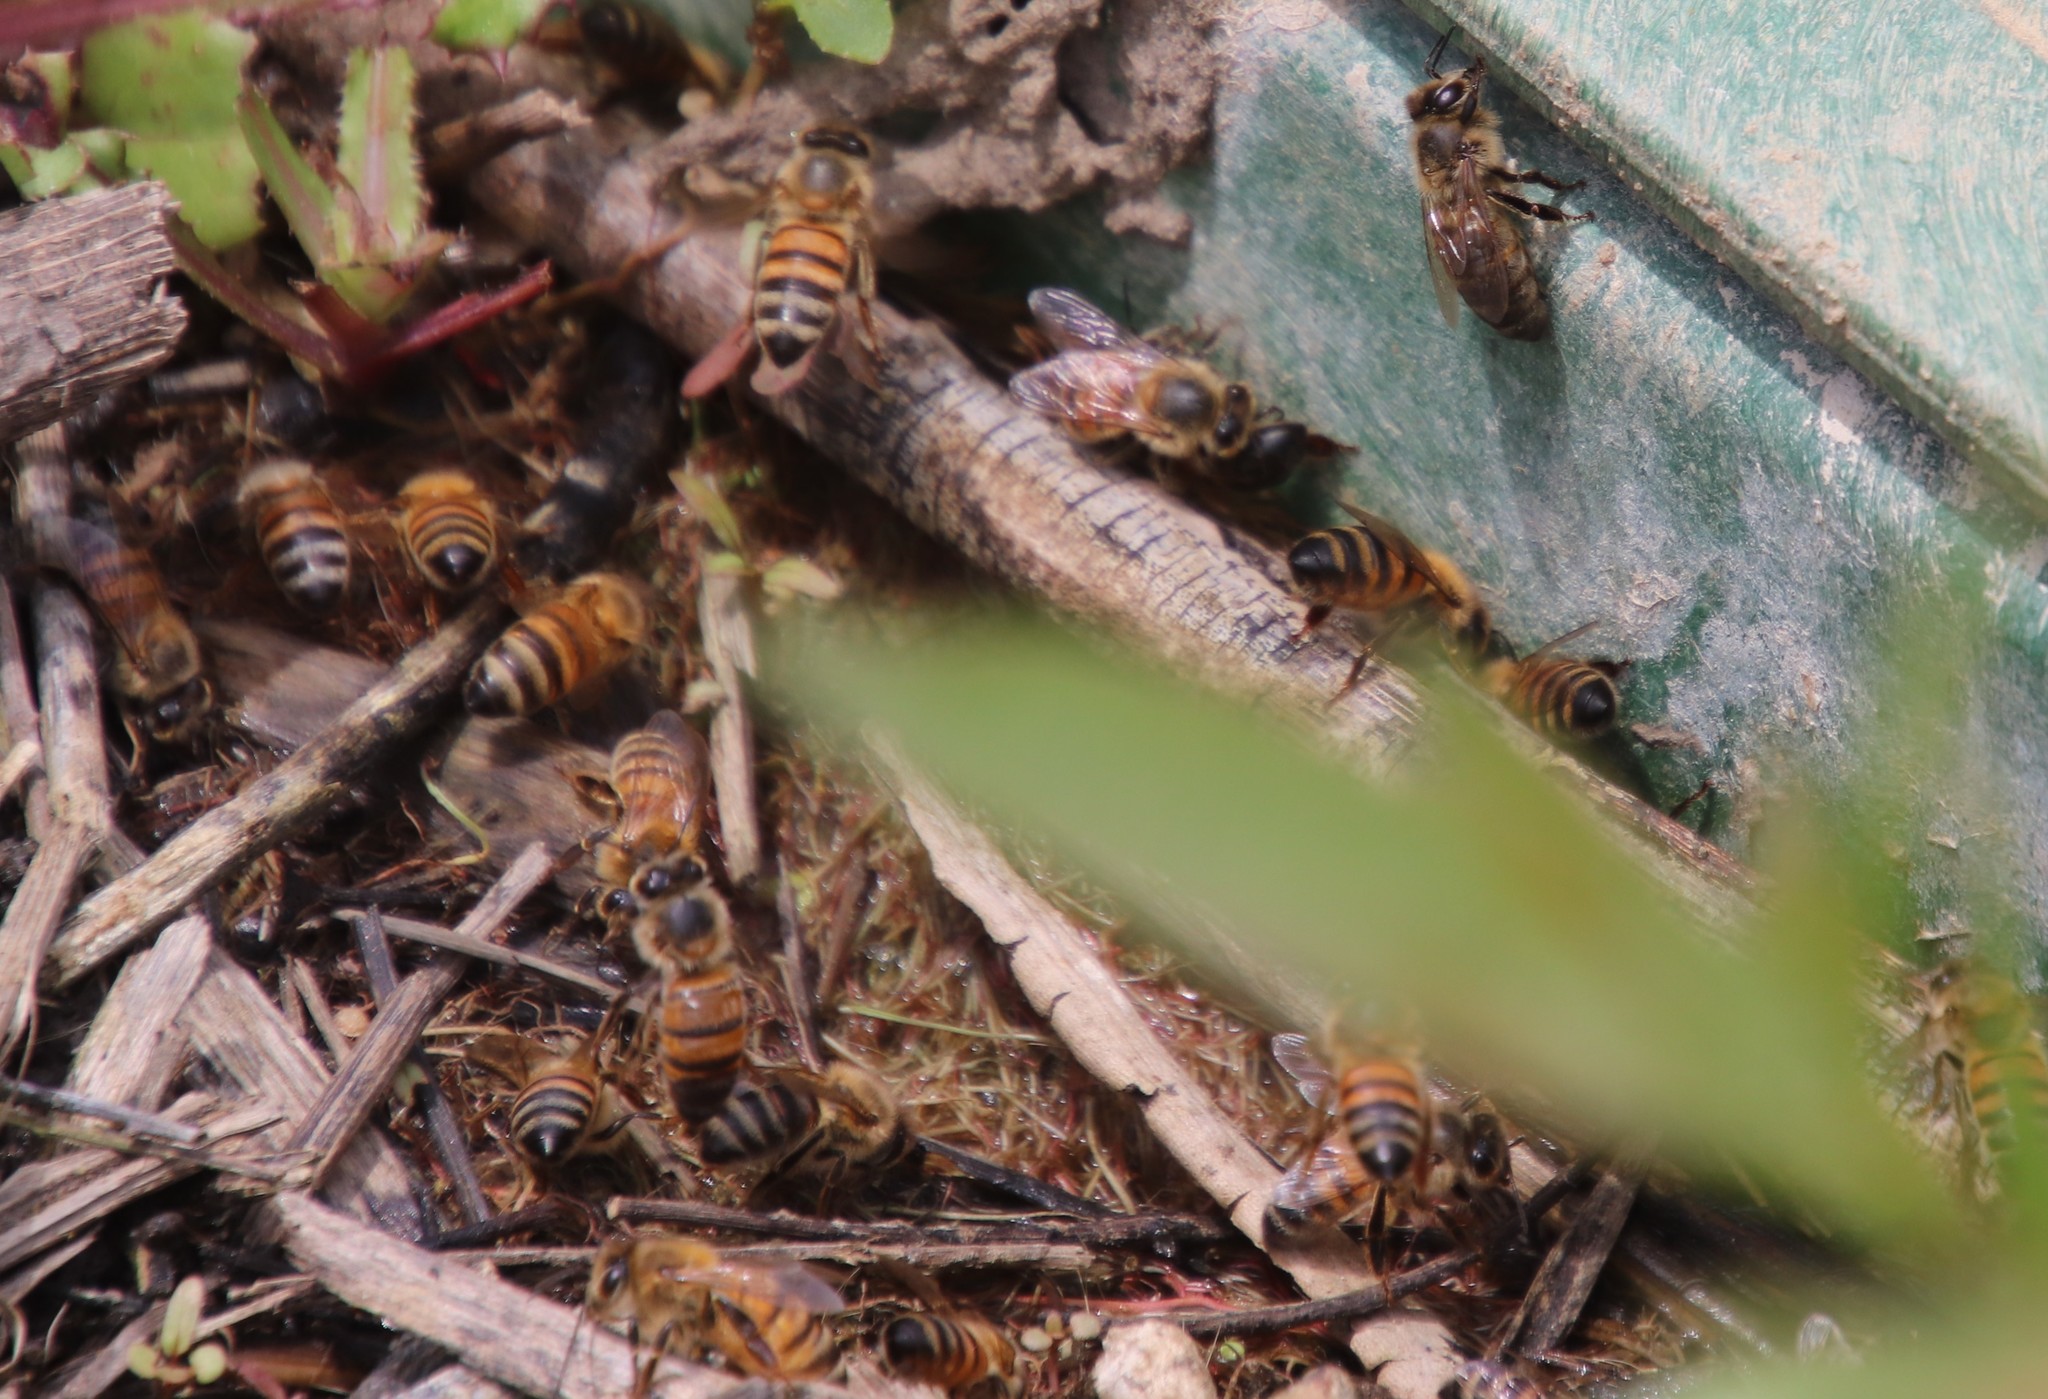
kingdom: Animalia
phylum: Arthropoda
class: Insecta
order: Hymenoptera
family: Apidae
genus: Apis
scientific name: Apis mellifera
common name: Honey bee
